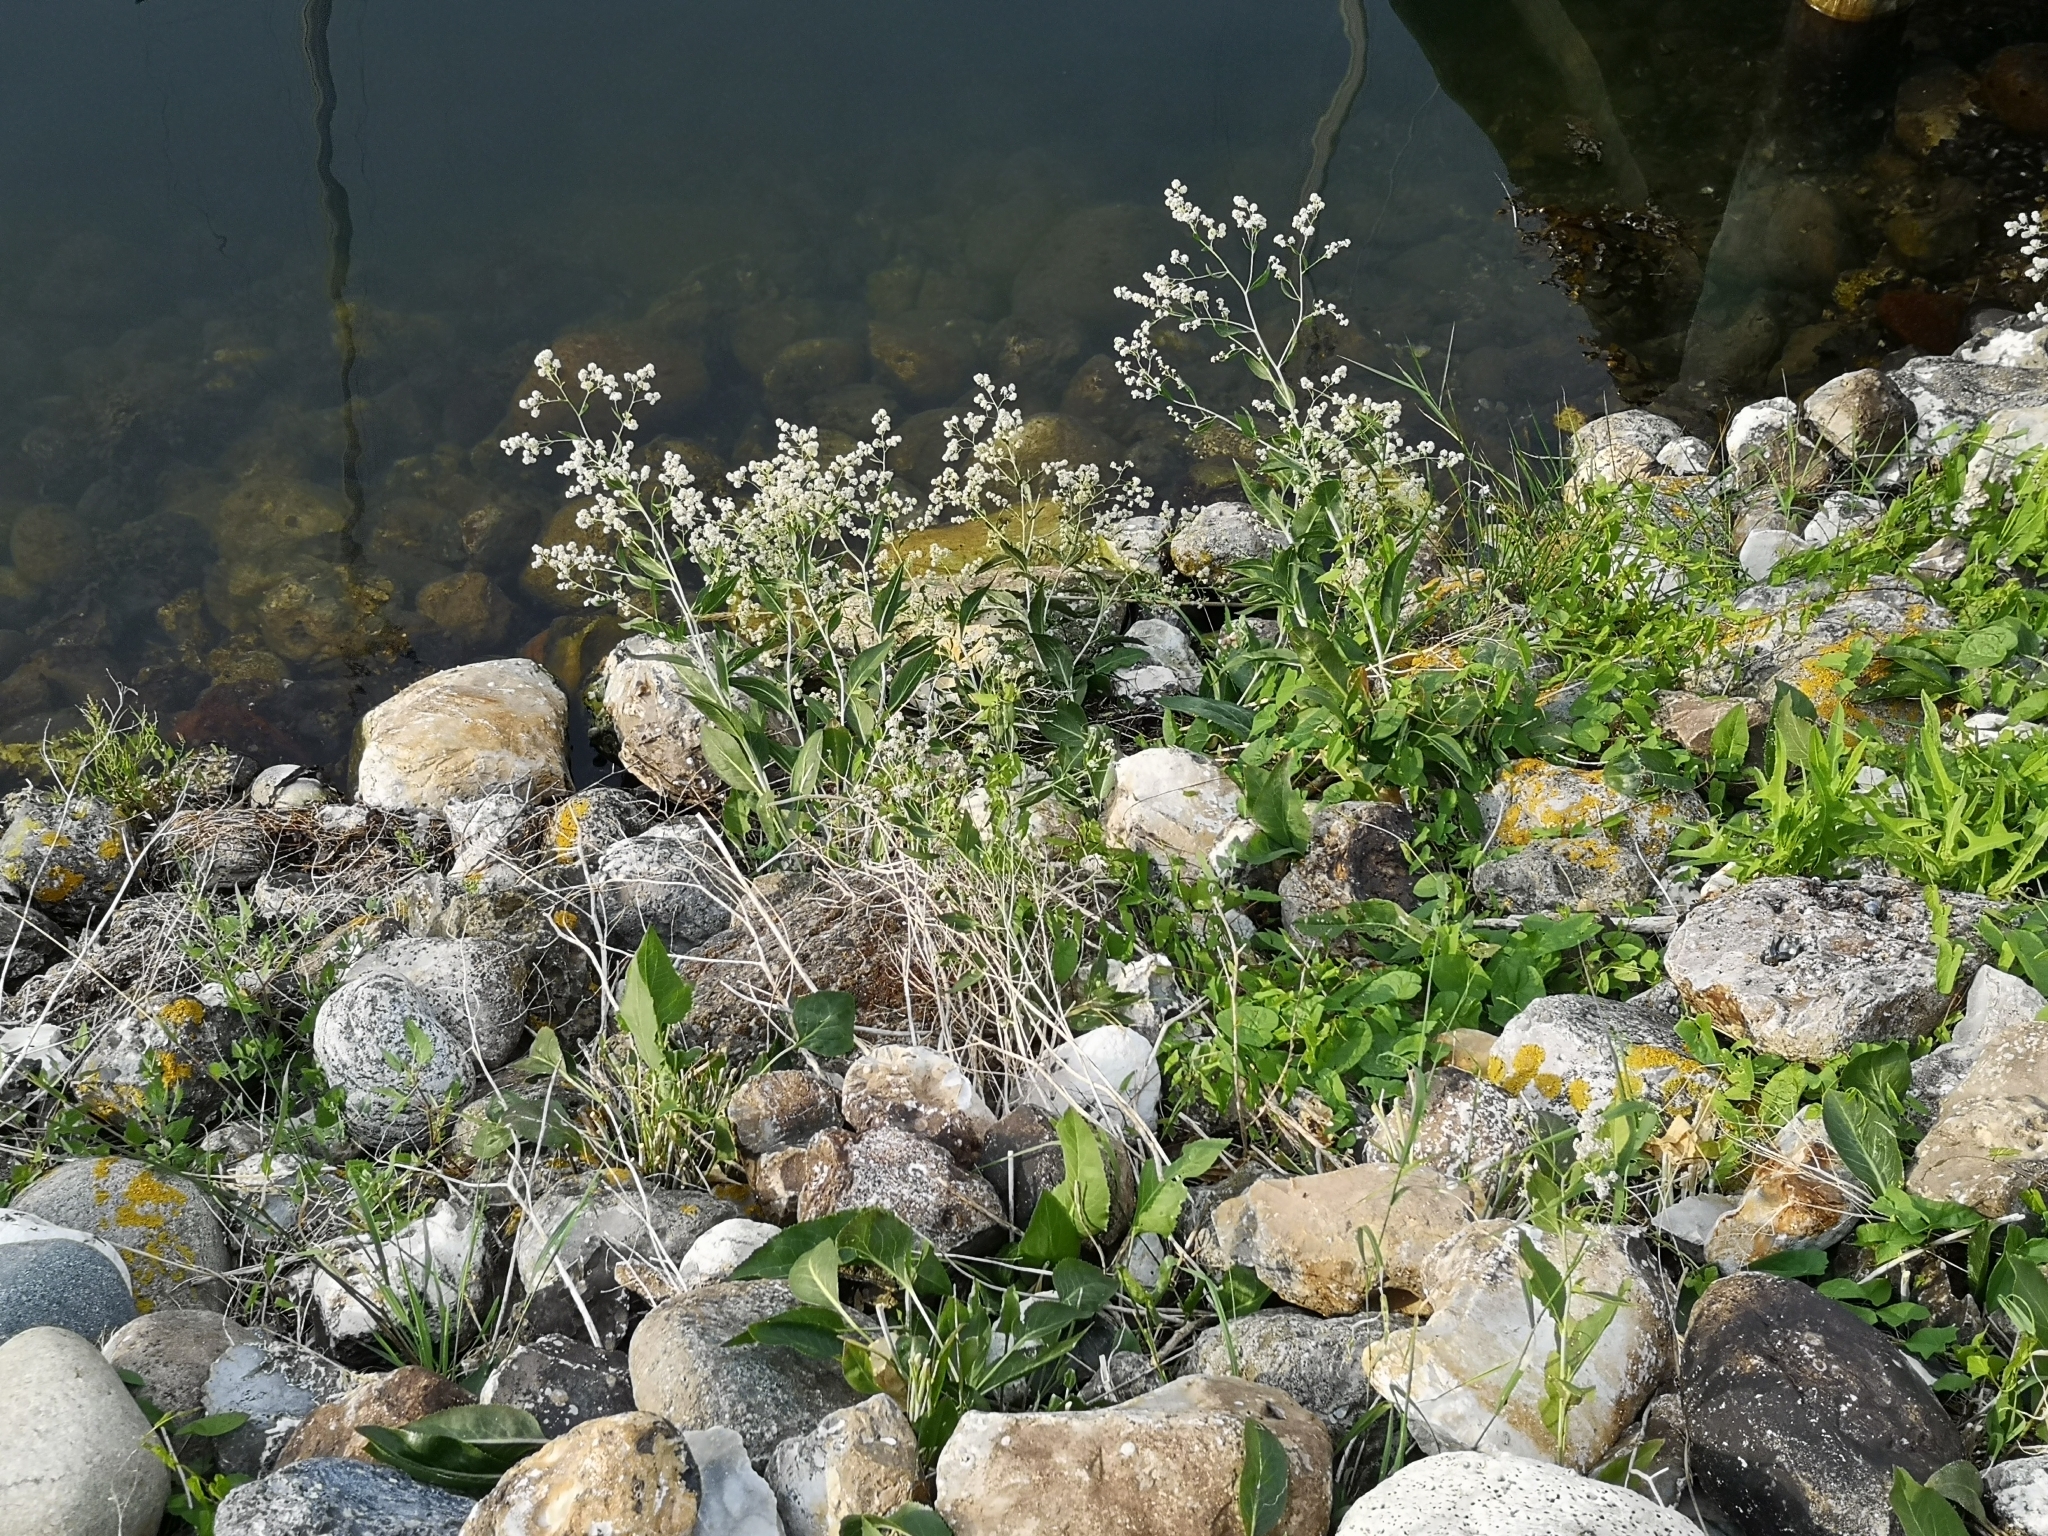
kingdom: Plantae
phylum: Tracheophyta
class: Magnoliopsida
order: Brassicales
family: Brassicaceae
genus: Lepidium
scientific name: Lepidium latifolium
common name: Dittander
